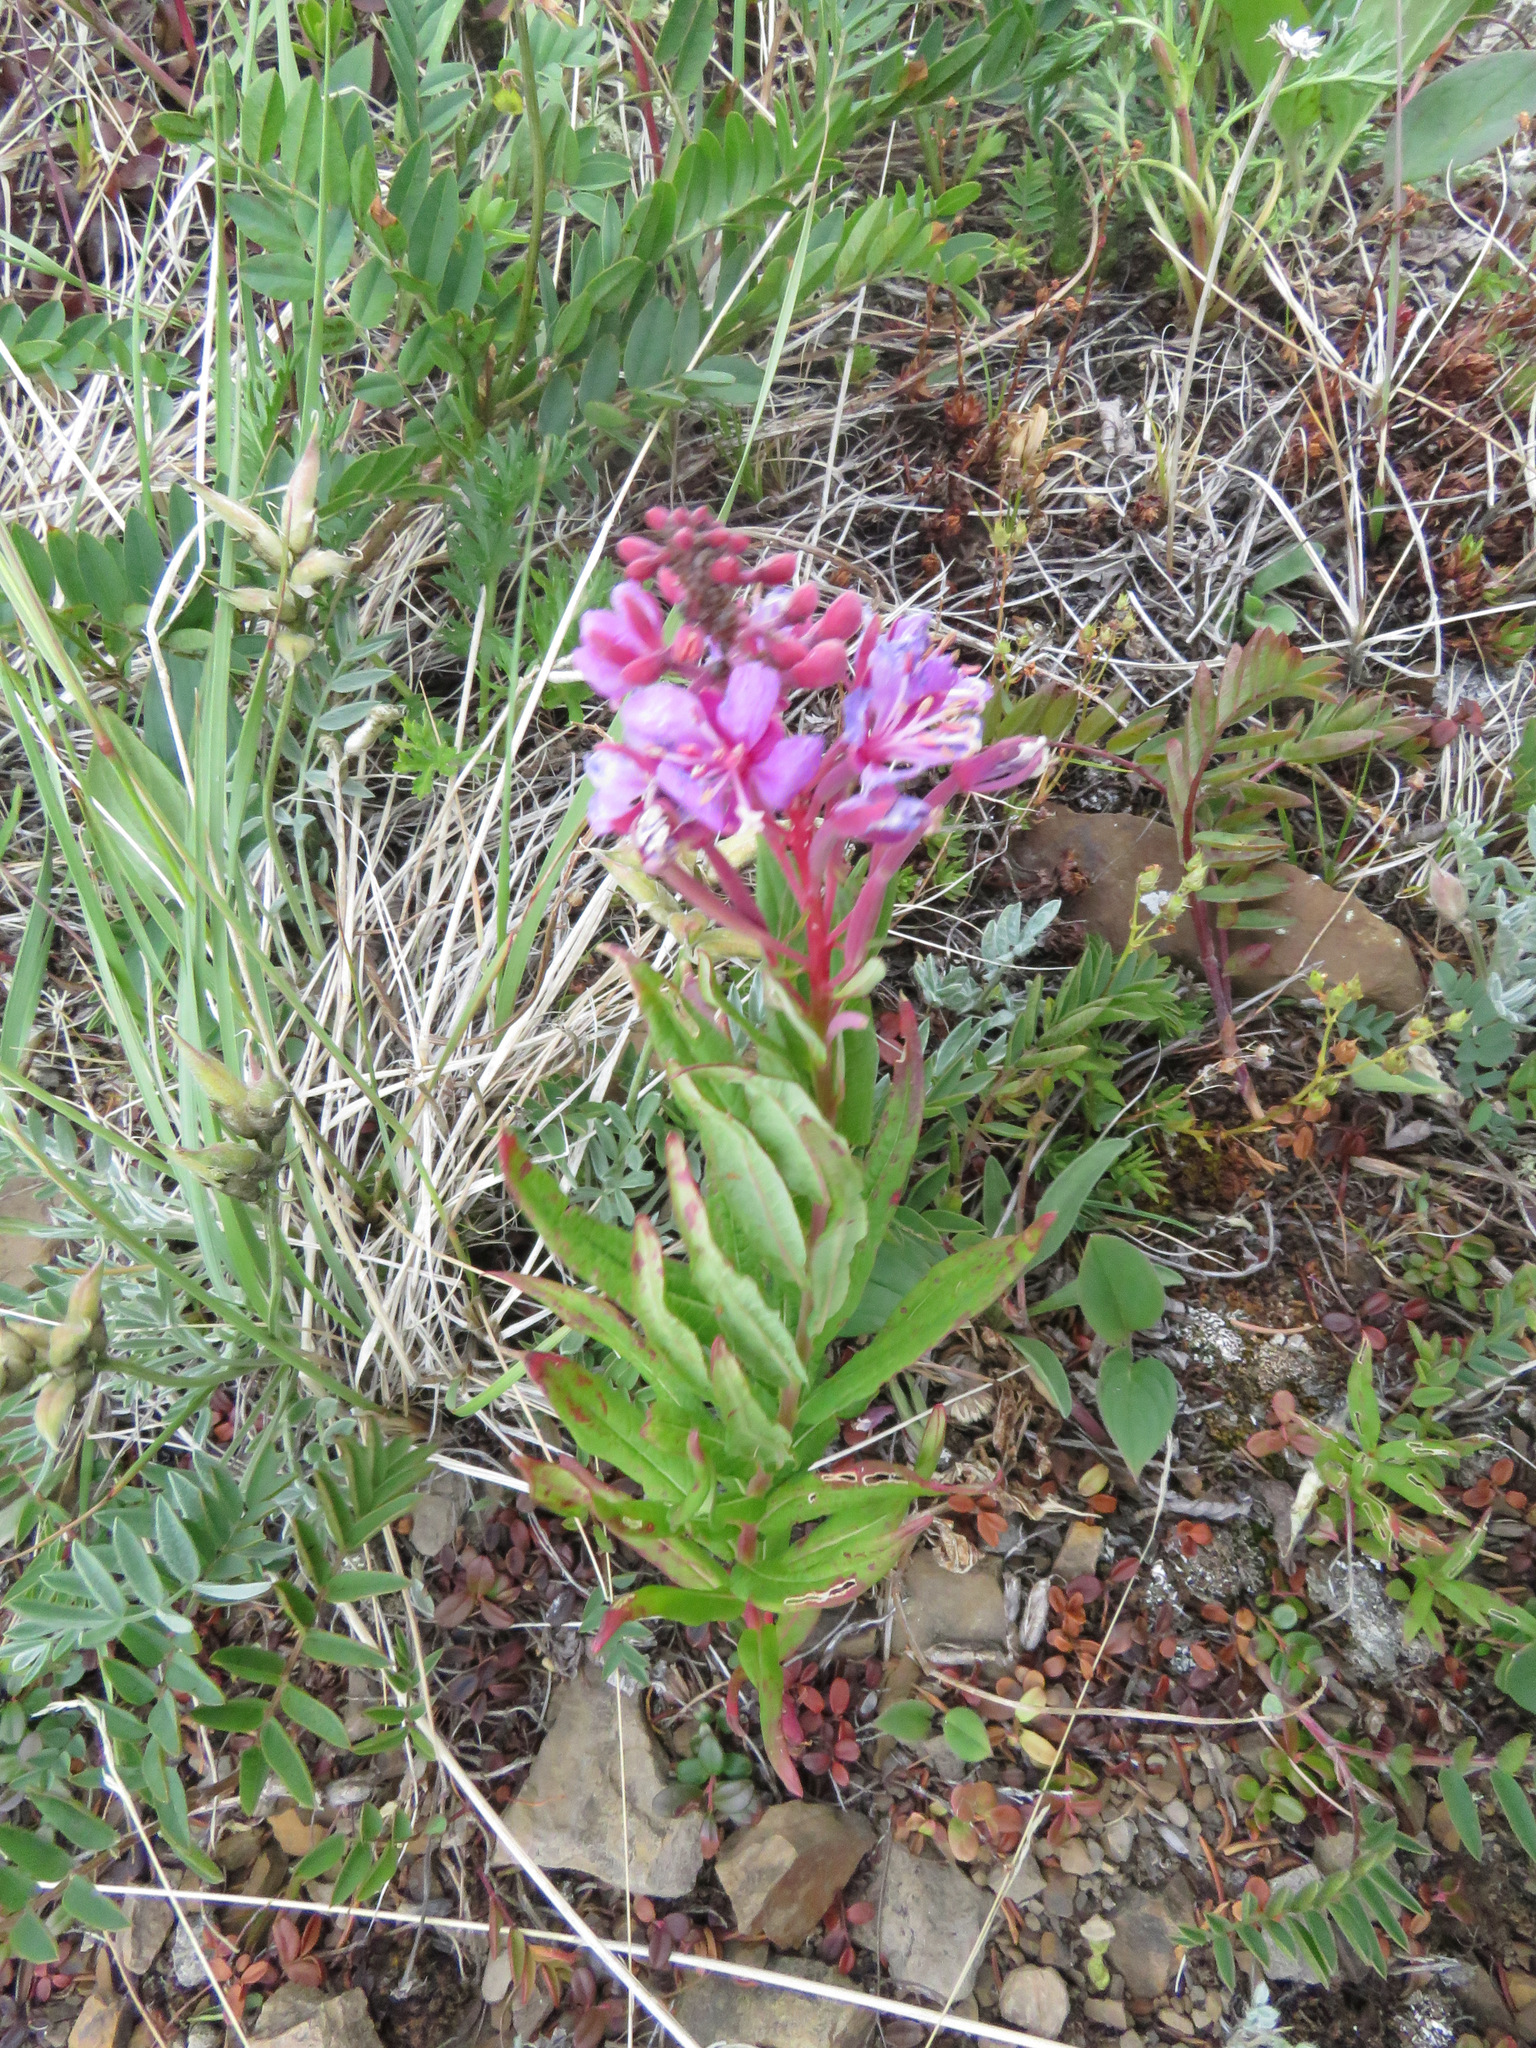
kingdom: Plantae
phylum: Tracheophyta
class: Magnoliopsida
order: Myrtales
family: Onagraceae
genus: Chamaenerion
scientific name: Chamaenerion angustifolium
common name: Fireweed
